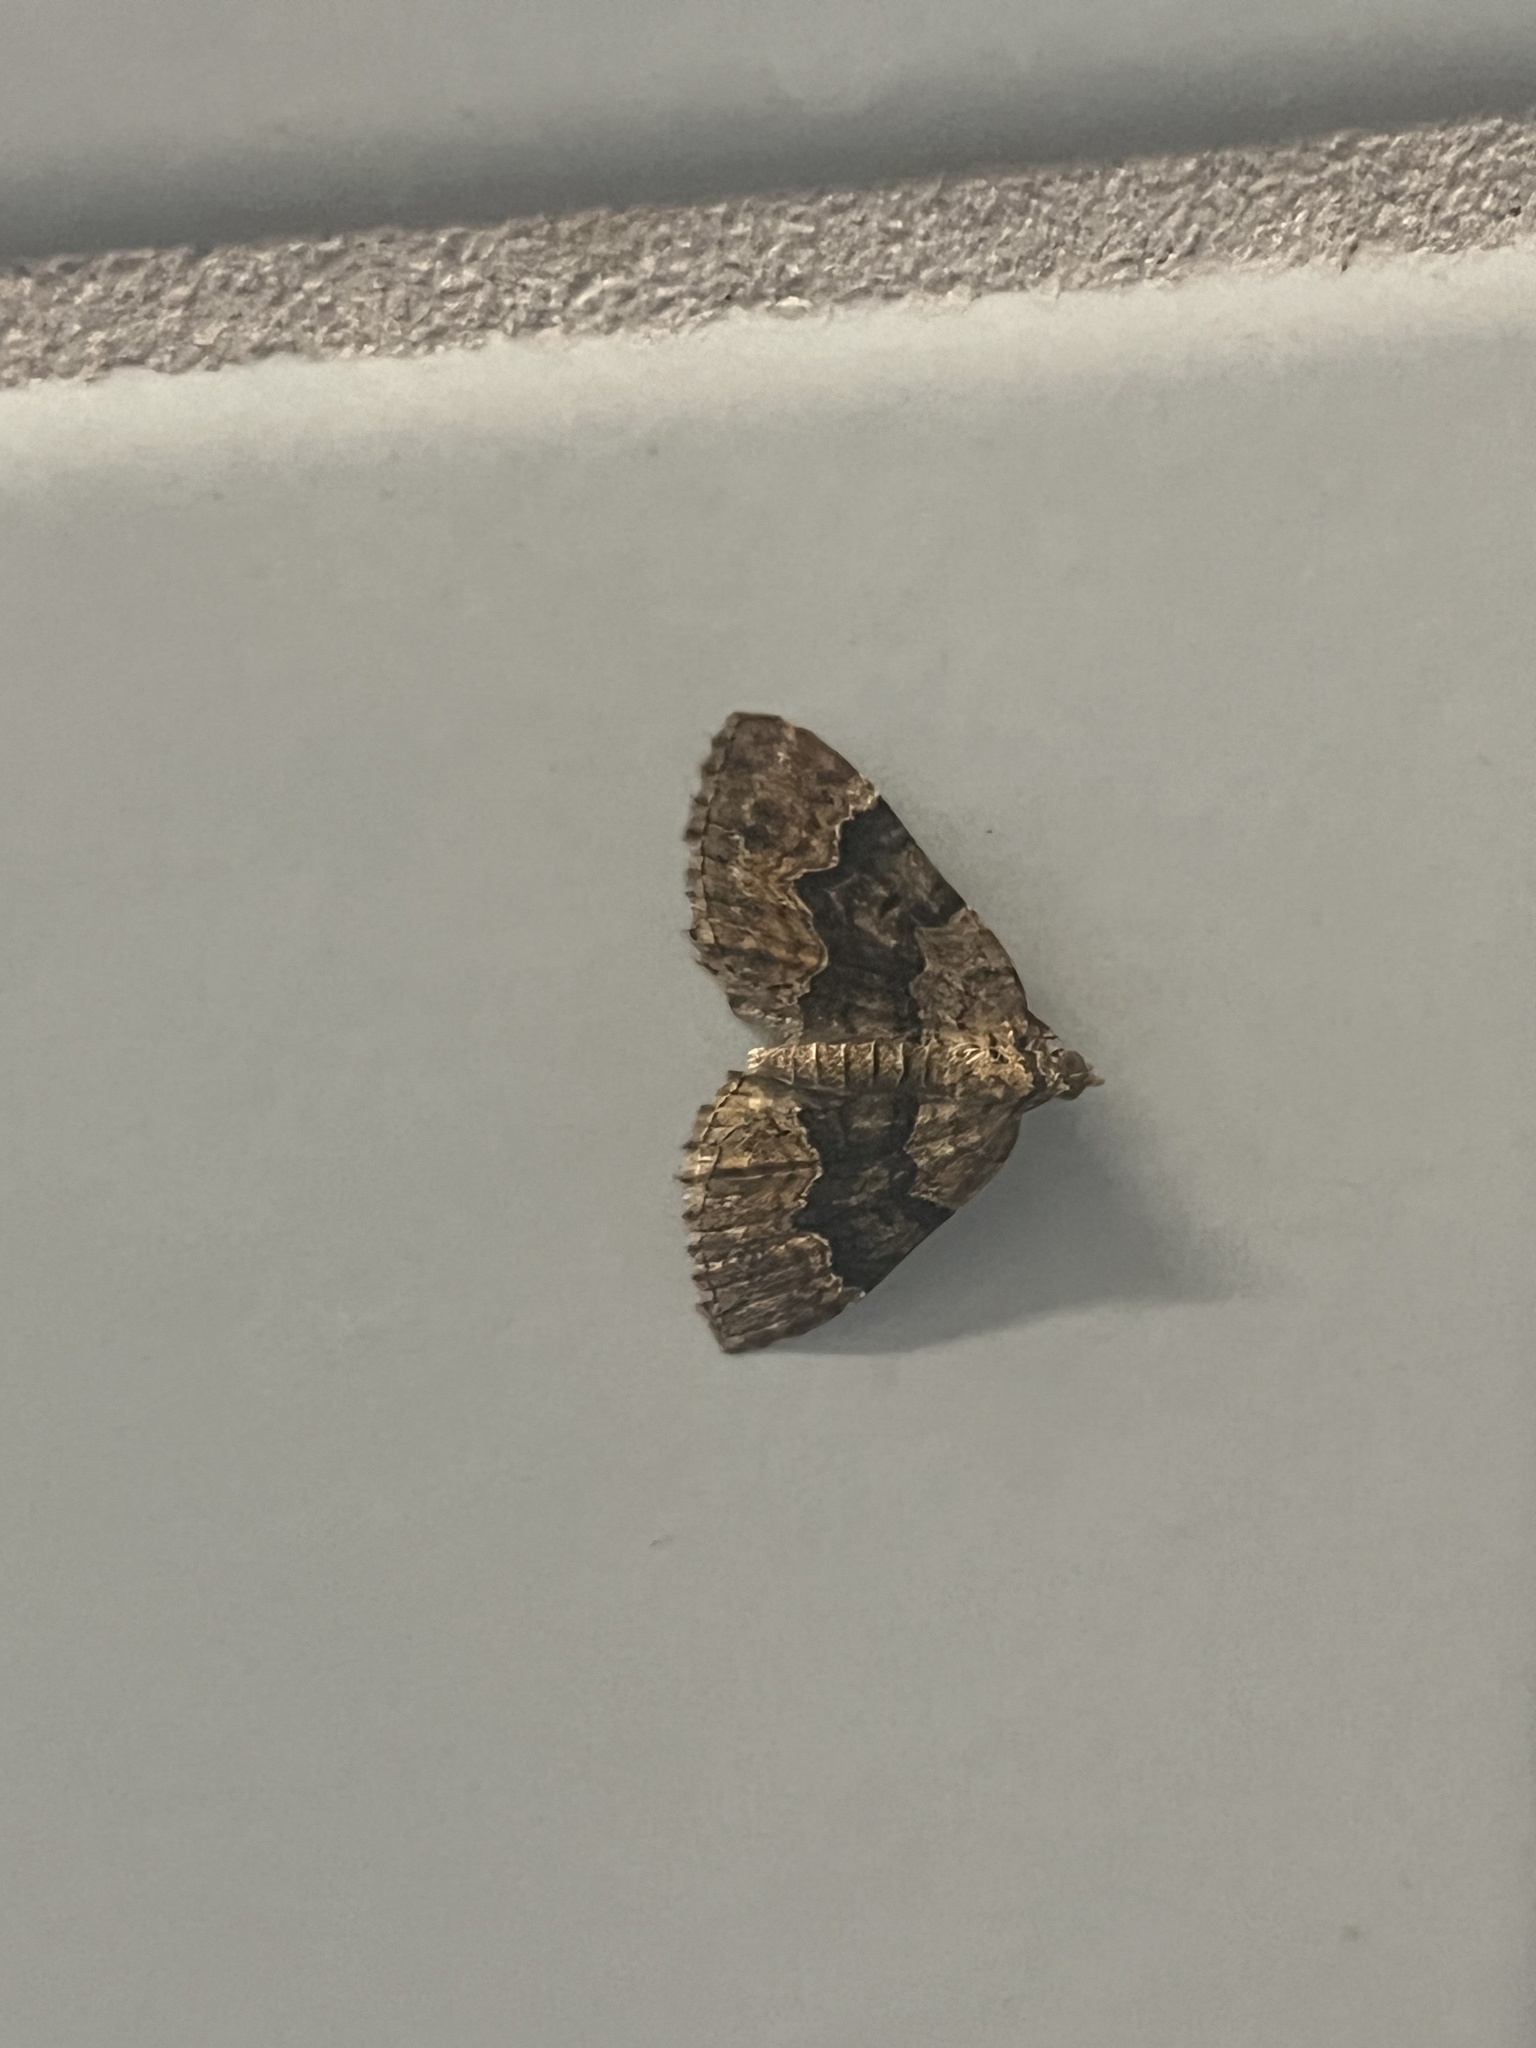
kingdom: Animalia
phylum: Arthropoda
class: Insecta
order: Lepidoptera
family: Geometridae
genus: Xanthorhoe
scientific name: Xanthorhoe quadrifasiata
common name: Large twin-spot carpet
